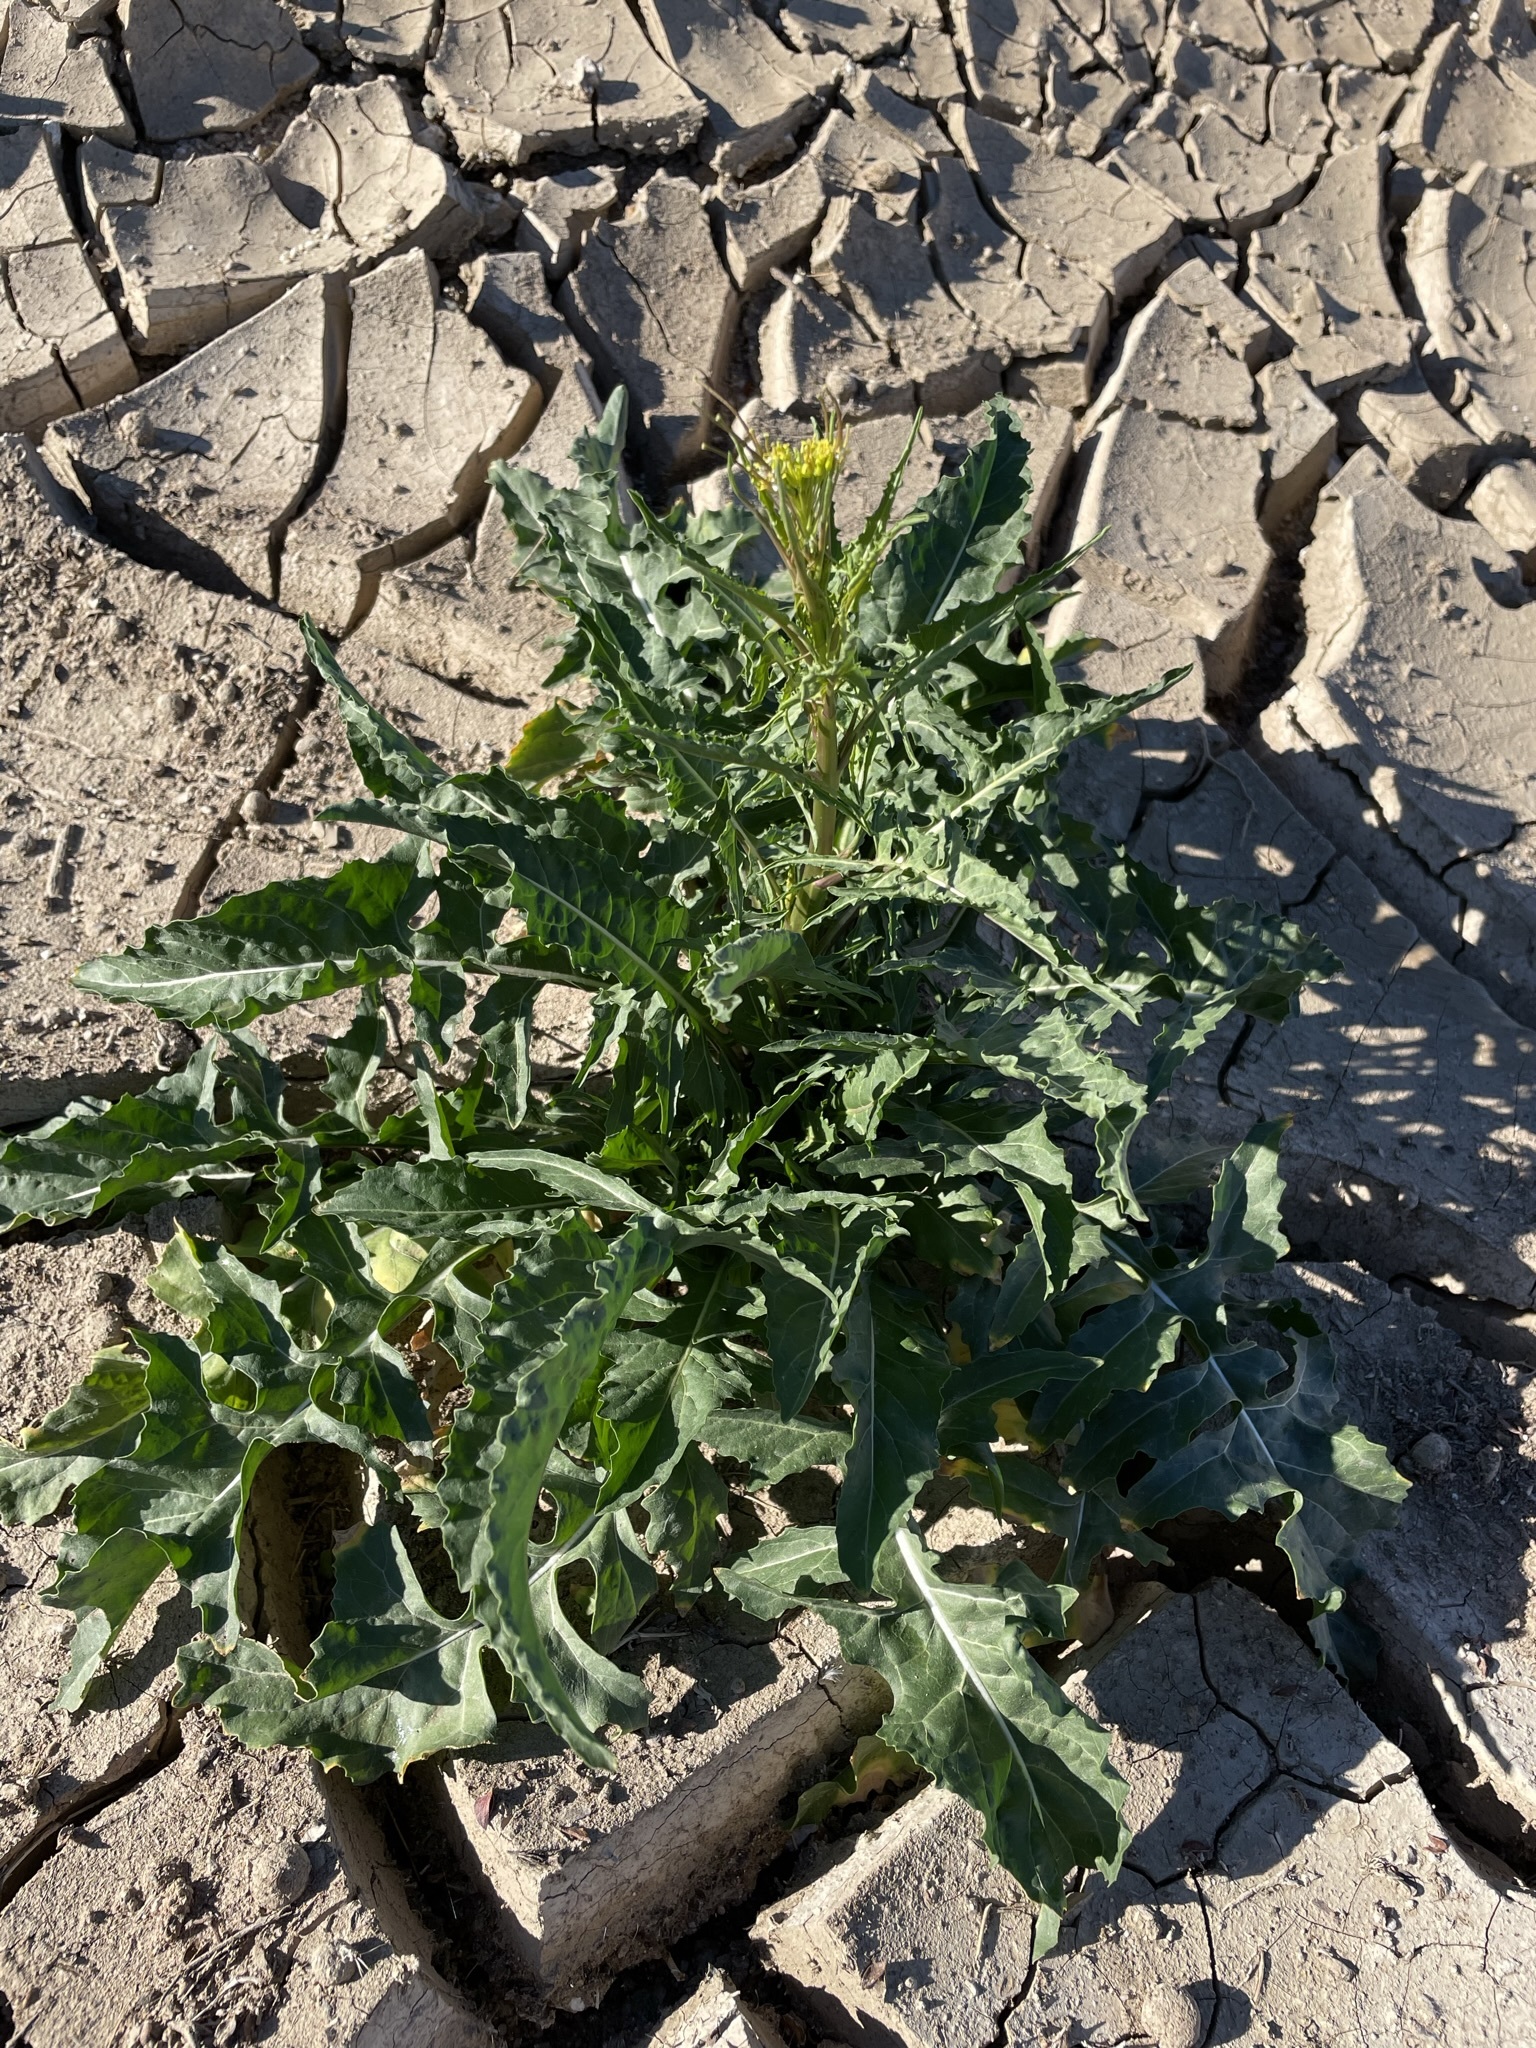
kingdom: Plantae
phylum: Tracheophyta
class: Magnoliopsida
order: Brassicales
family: Brassicaceae
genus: Sisymbrium
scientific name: Sisymbrium irio
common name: London rocket
